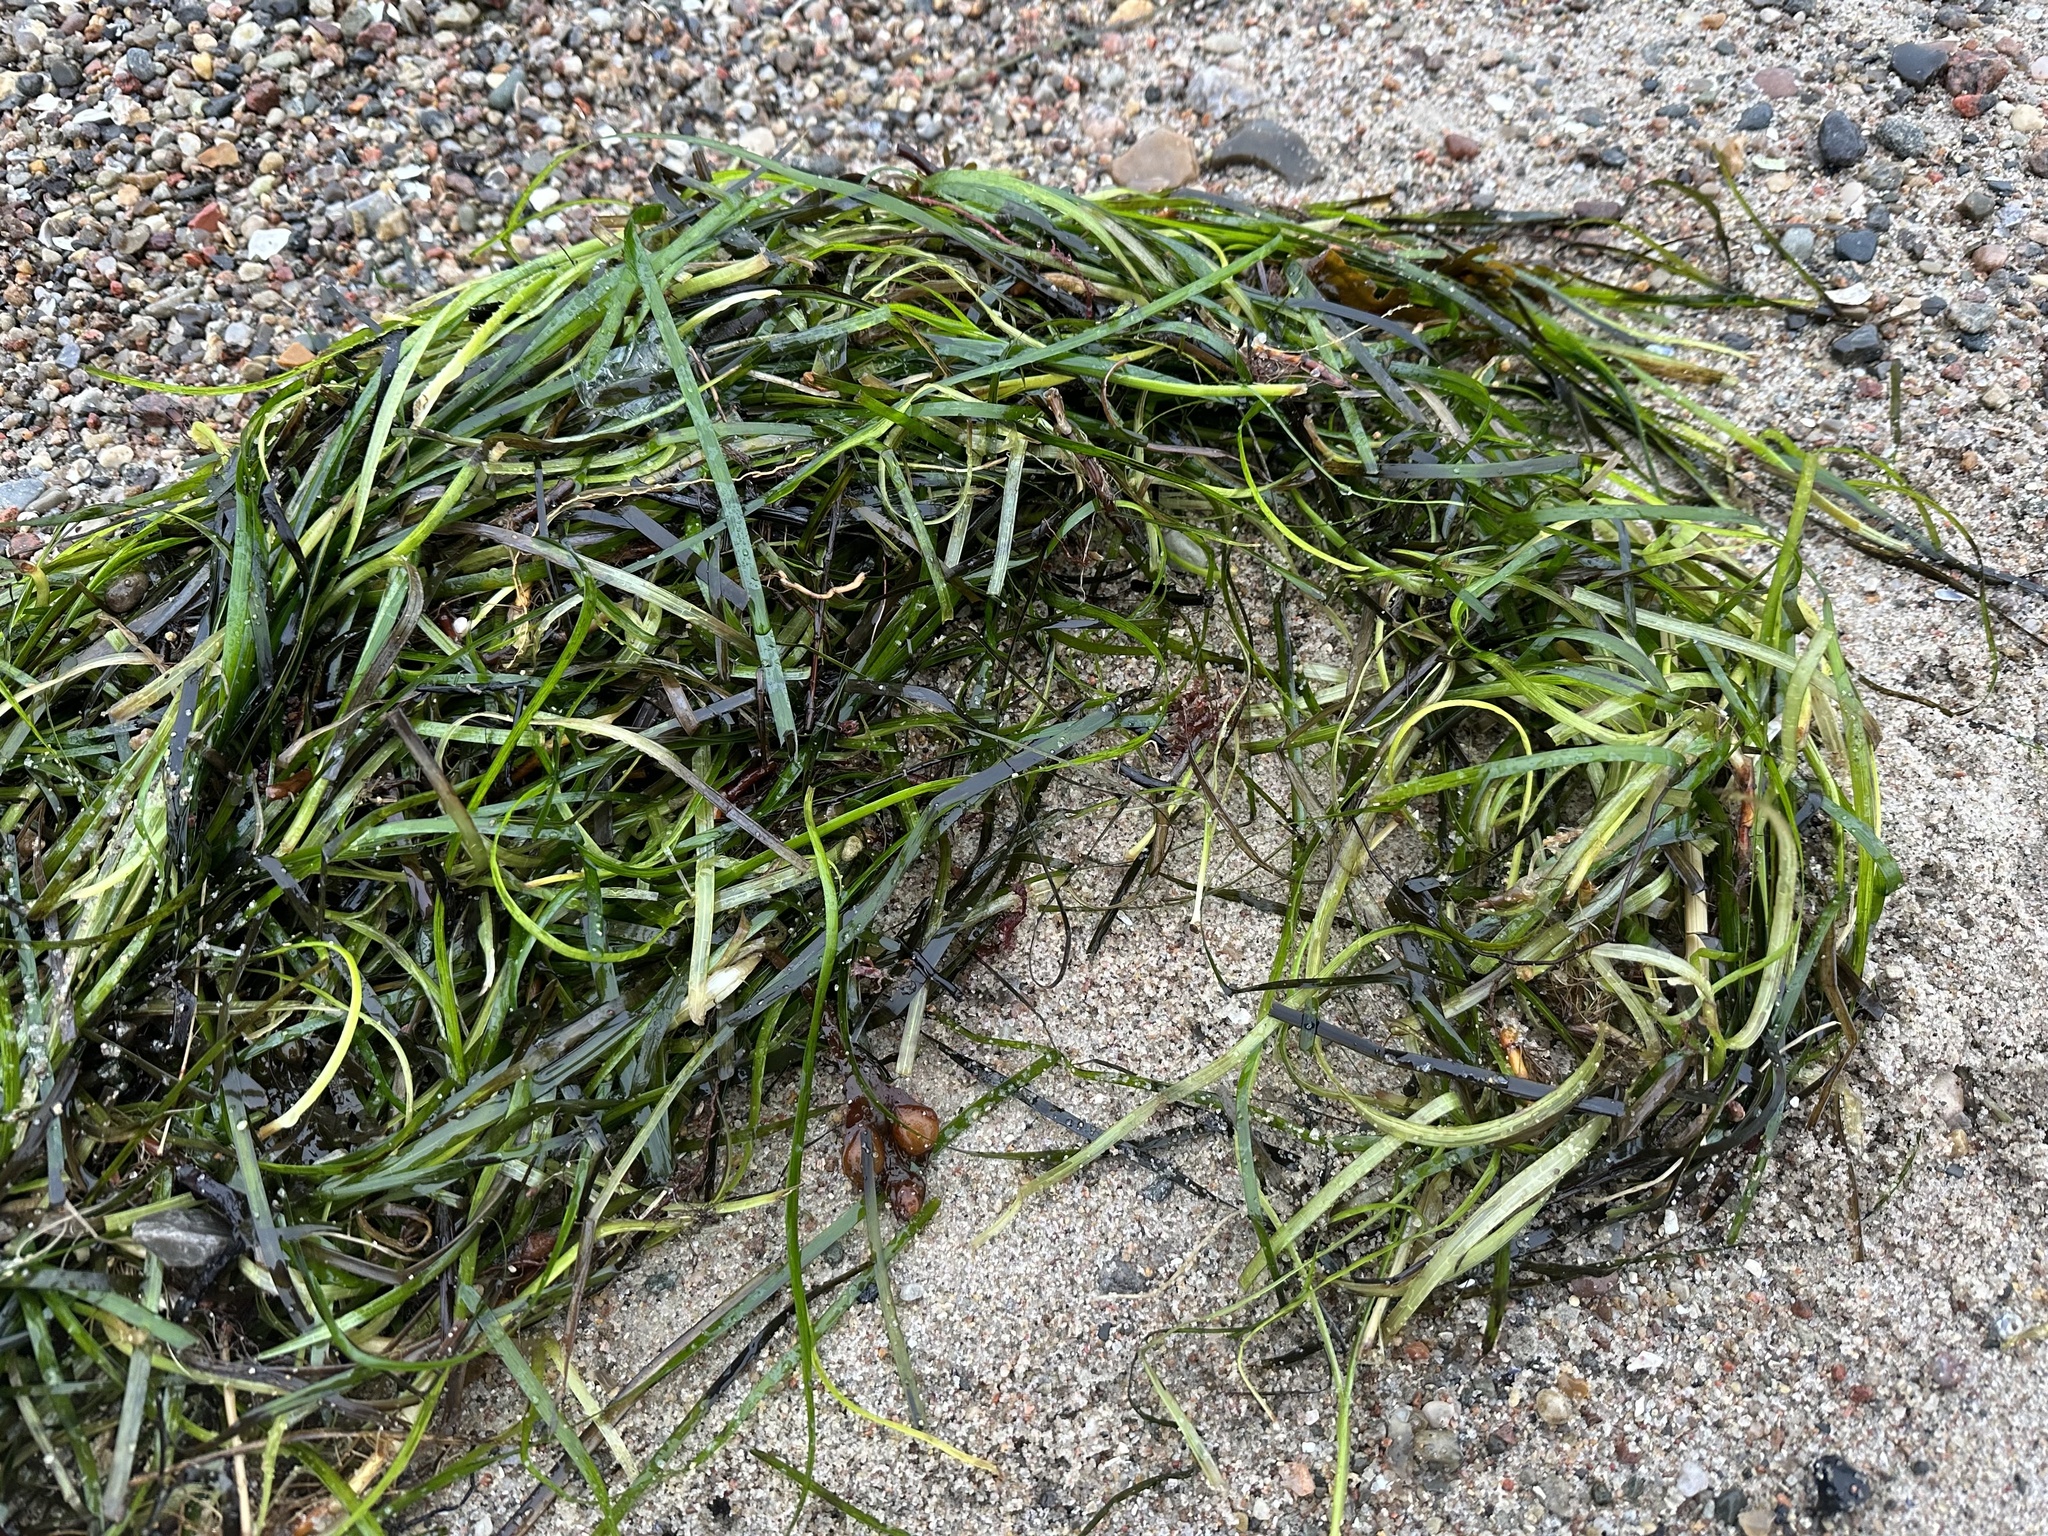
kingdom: Plantae
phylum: Tracheophyta
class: Liliopsida
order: Alismatales
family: Zosteraceae
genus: Zostera
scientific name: Zostera marina
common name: Eelgrass
